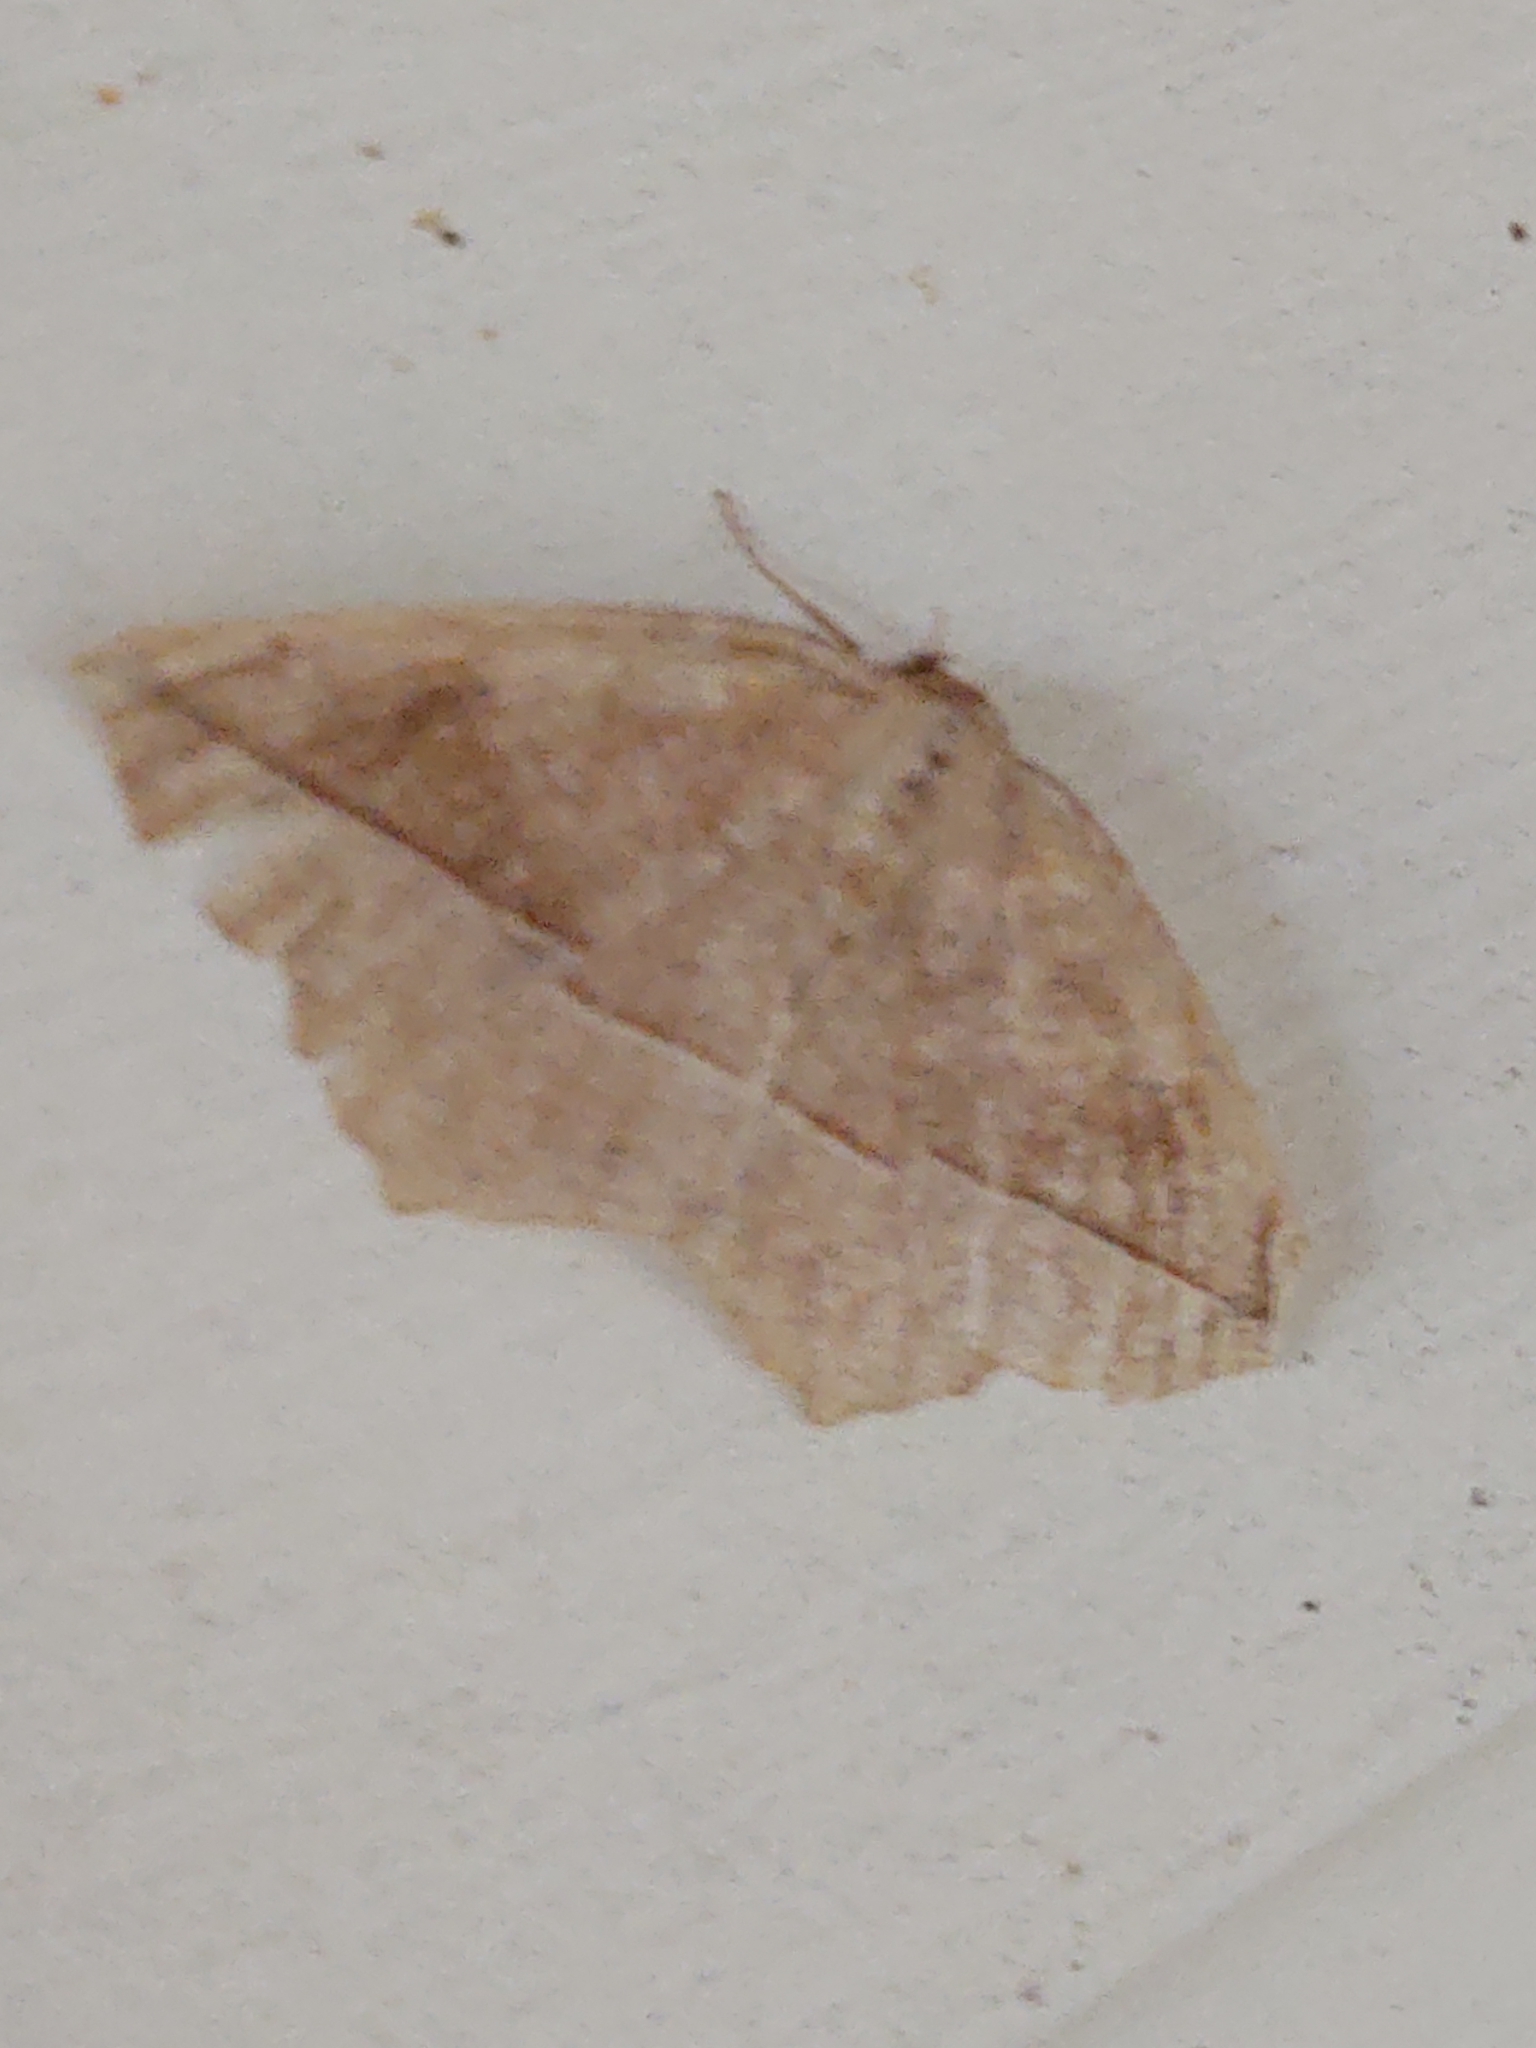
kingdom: Animalia
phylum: Arthropoda
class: Insecta
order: Lepidoptera
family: Geometridae
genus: Eutrapela
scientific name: Eutrapela clemataria
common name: Curved-toothed geometer
